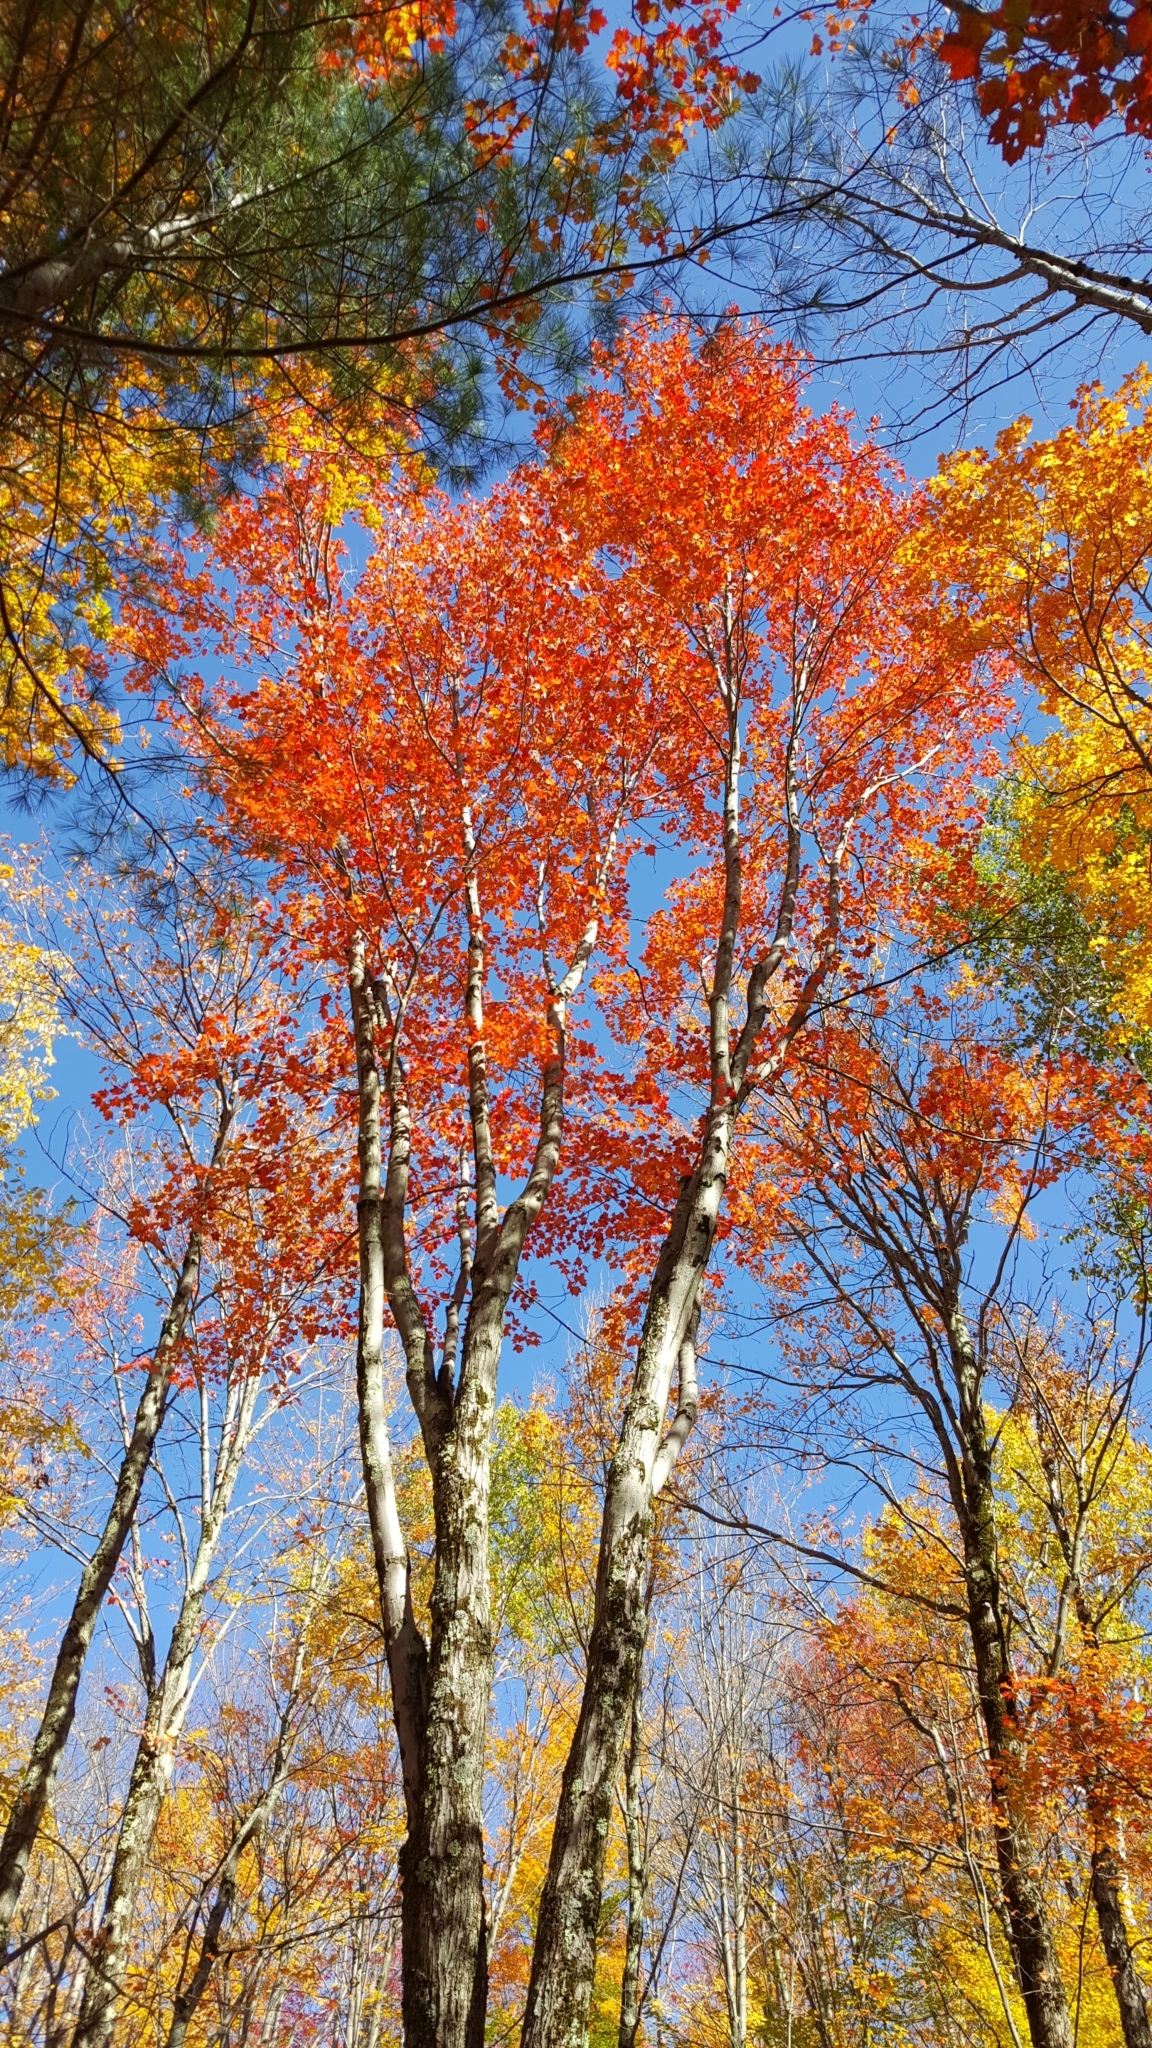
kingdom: Plantae
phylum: Tracheophyta
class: Magnoliopsida
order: Sapindales
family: Sapindaceae
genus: Acer
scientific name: Acer rubrum
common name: Red maple
